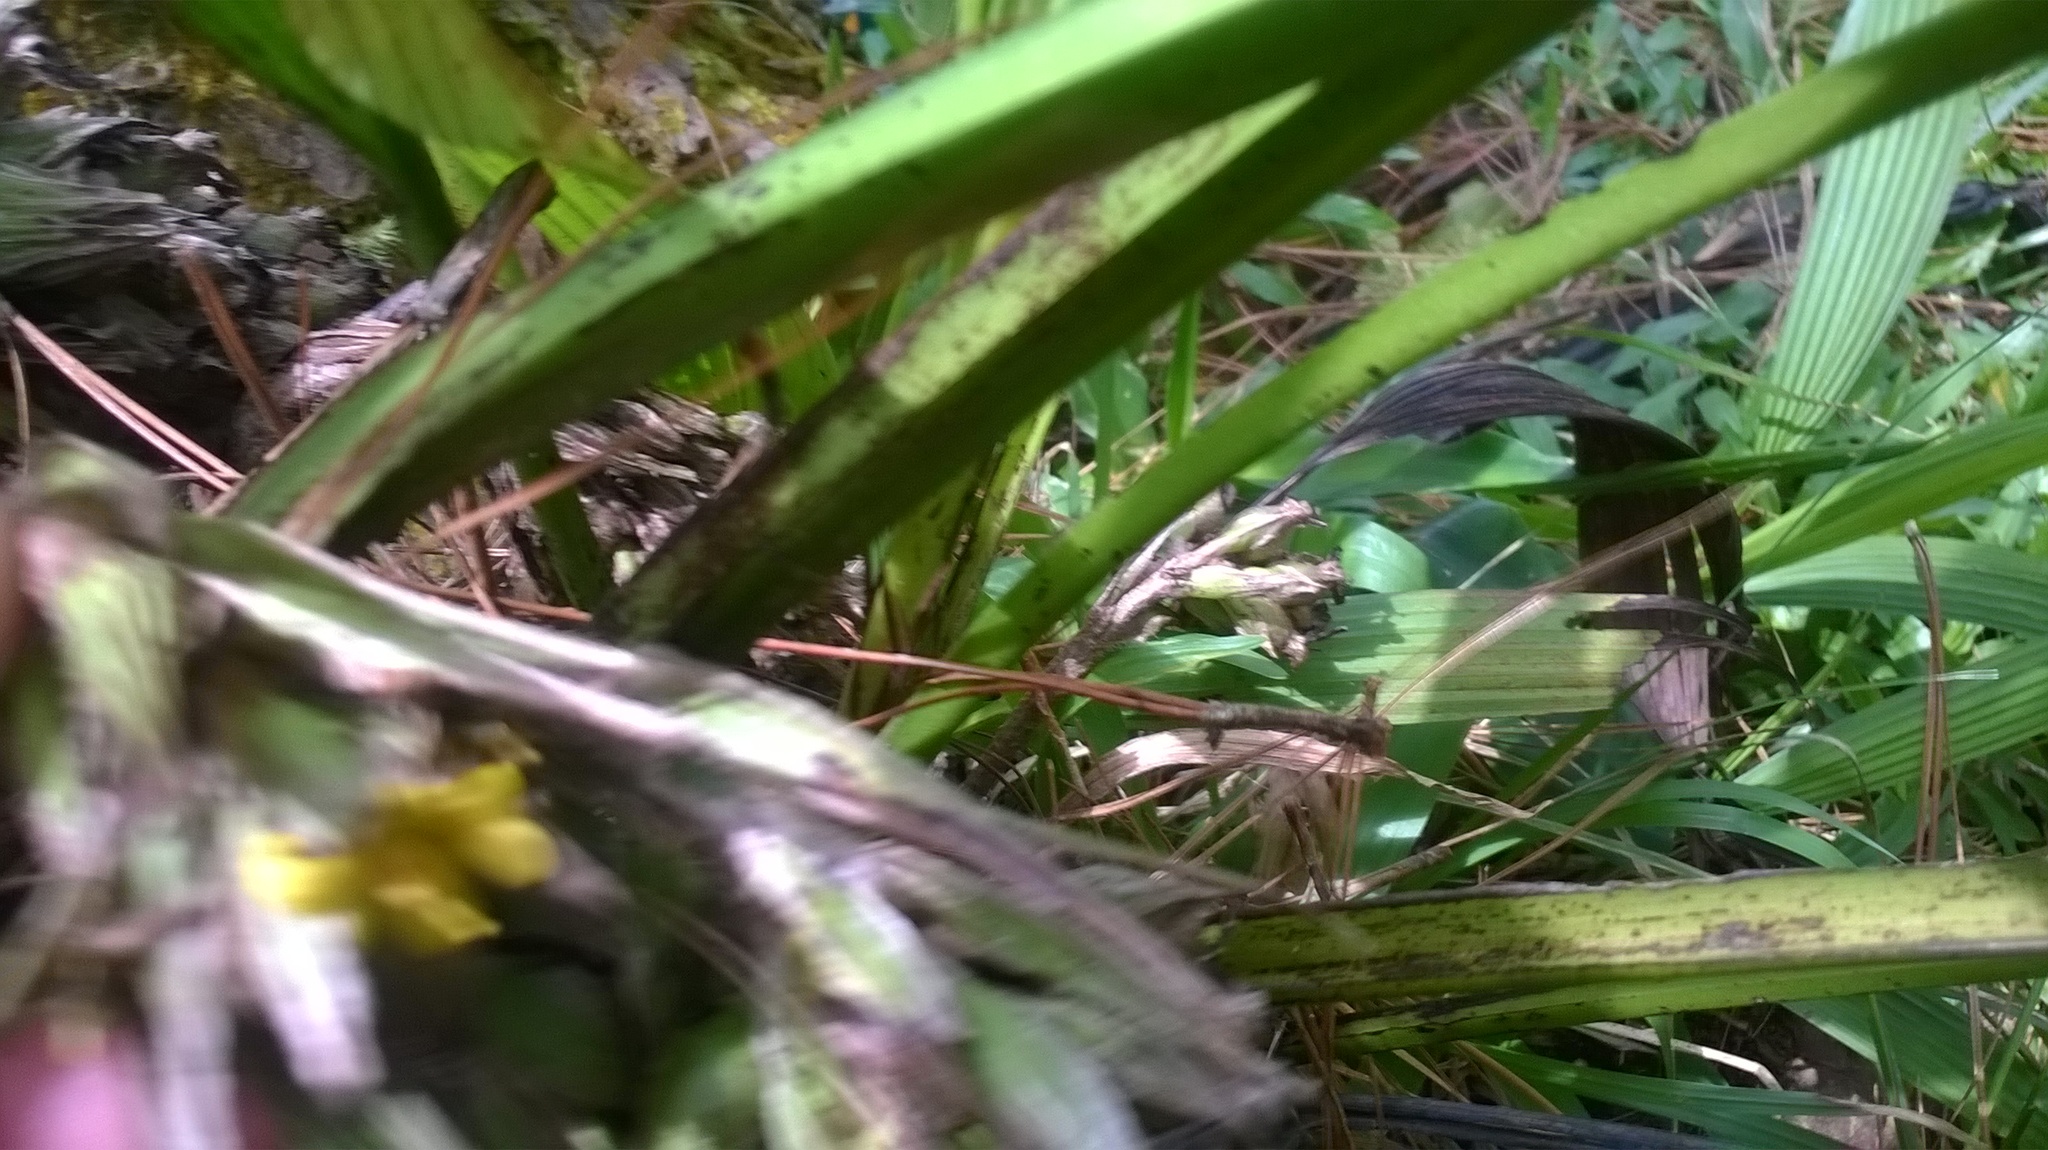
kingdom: Plantae
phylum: Tracheophyta
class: Liliopsida
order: Asparagales
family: Hypoxidaceae
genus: Curculigo
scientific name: Curculigo capitulata
